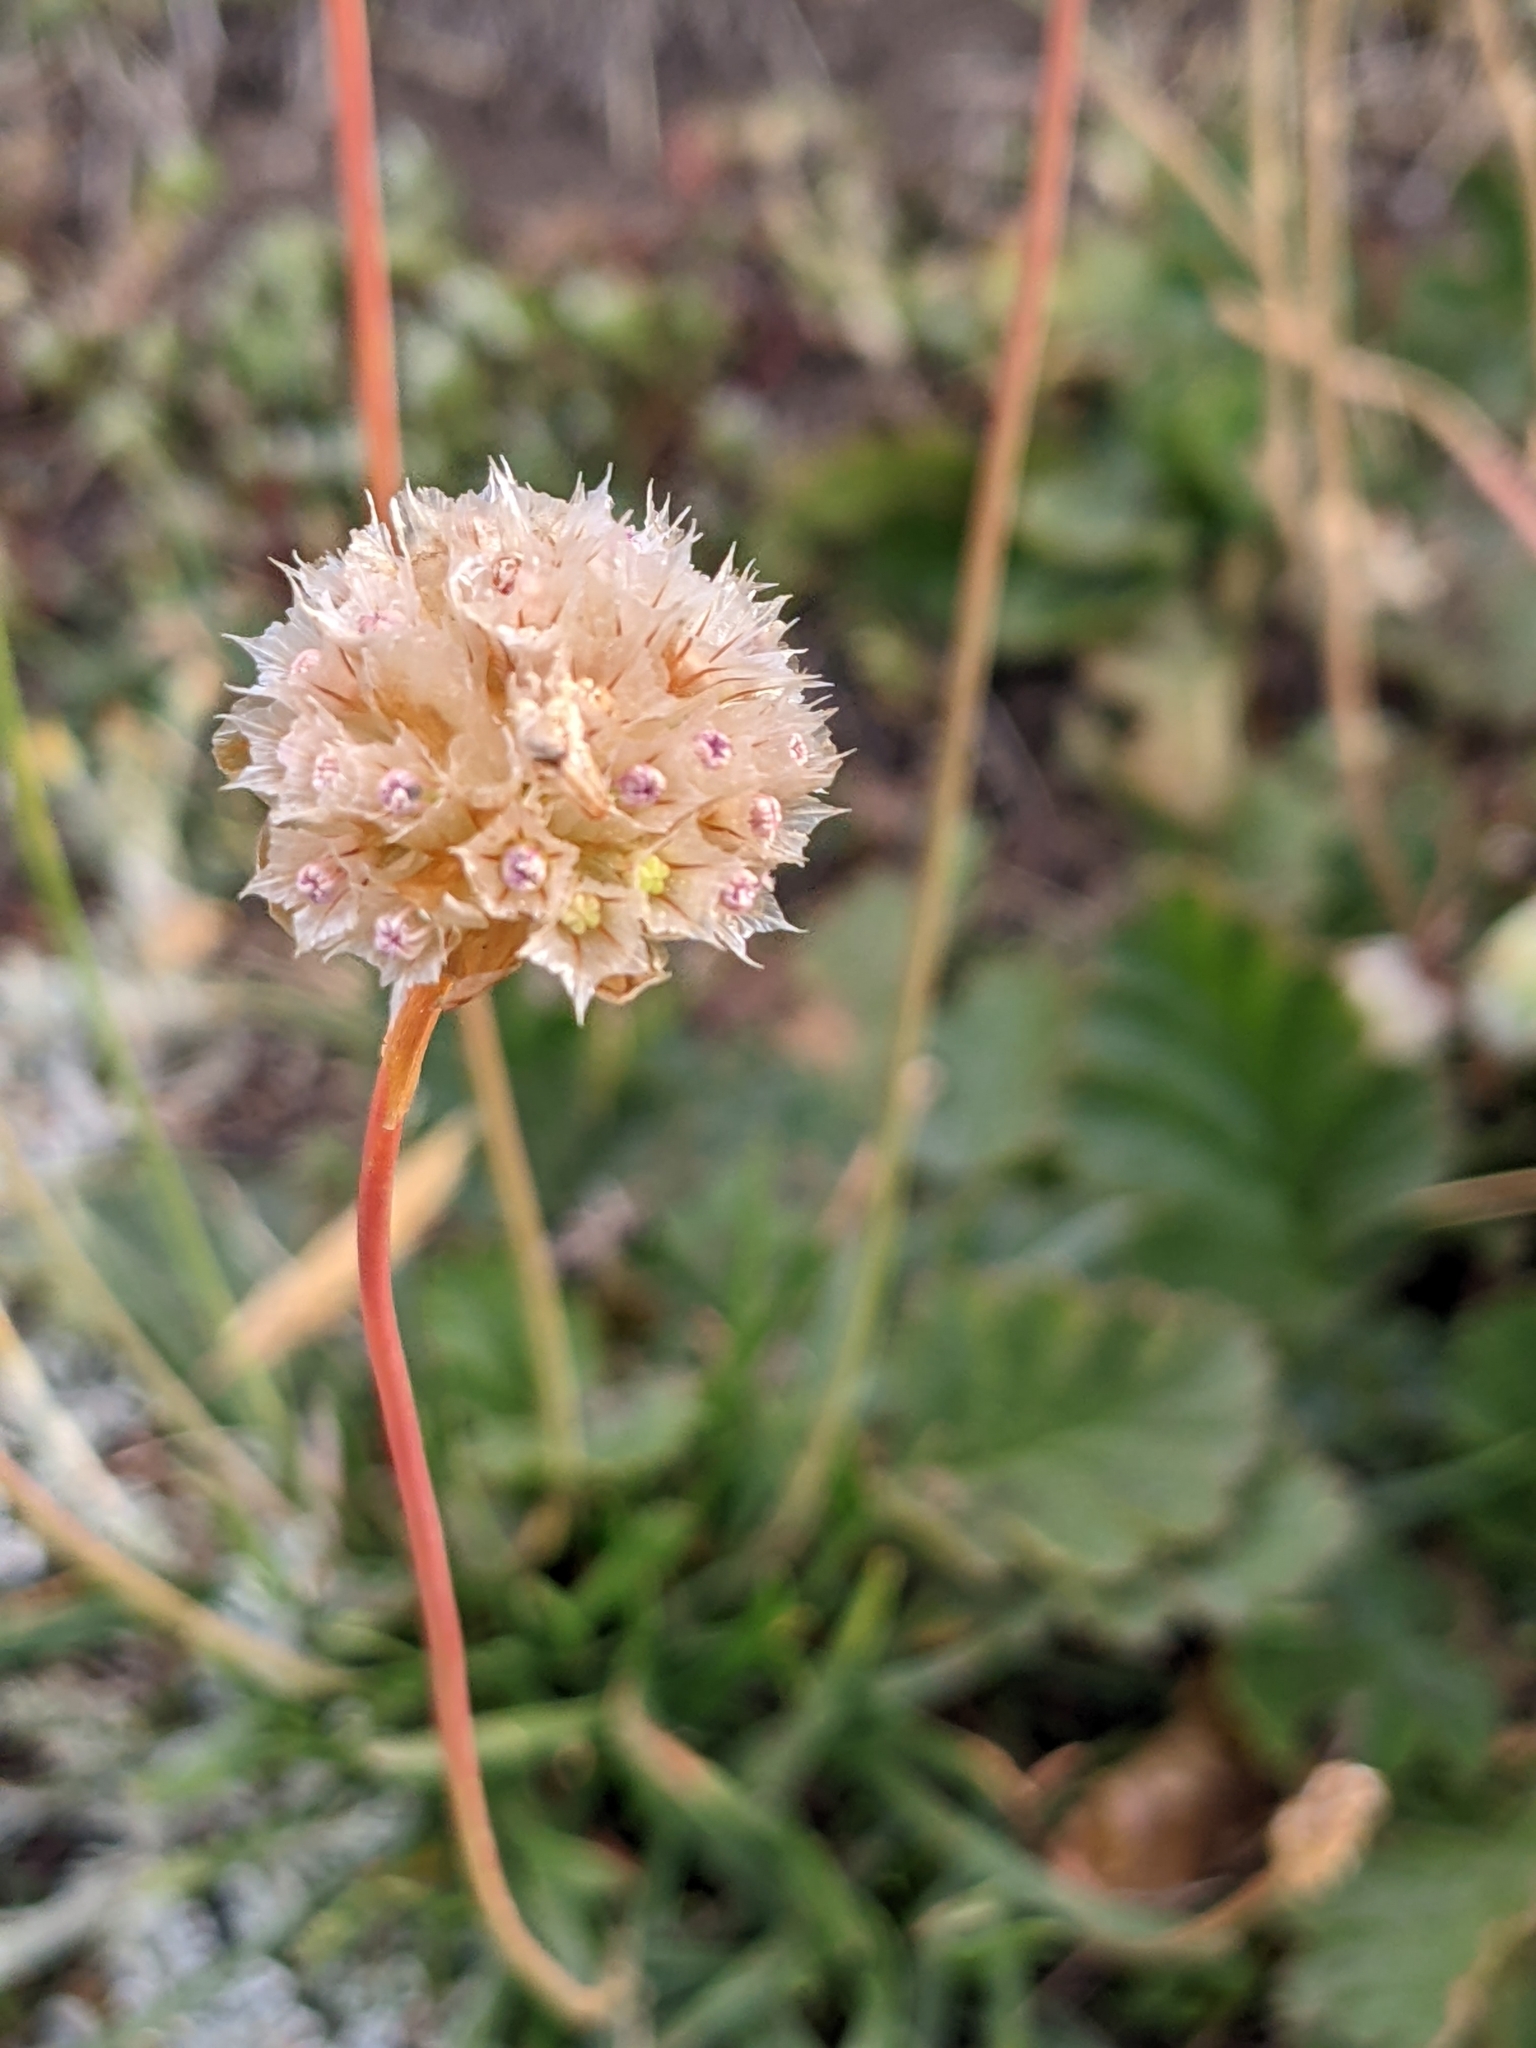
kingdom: Plantae
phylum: Tracheophyta
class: Magnoliopsida
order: Caryophyllales
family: Plumbaginaceae
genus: Armeria
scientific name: Armeria alpina
